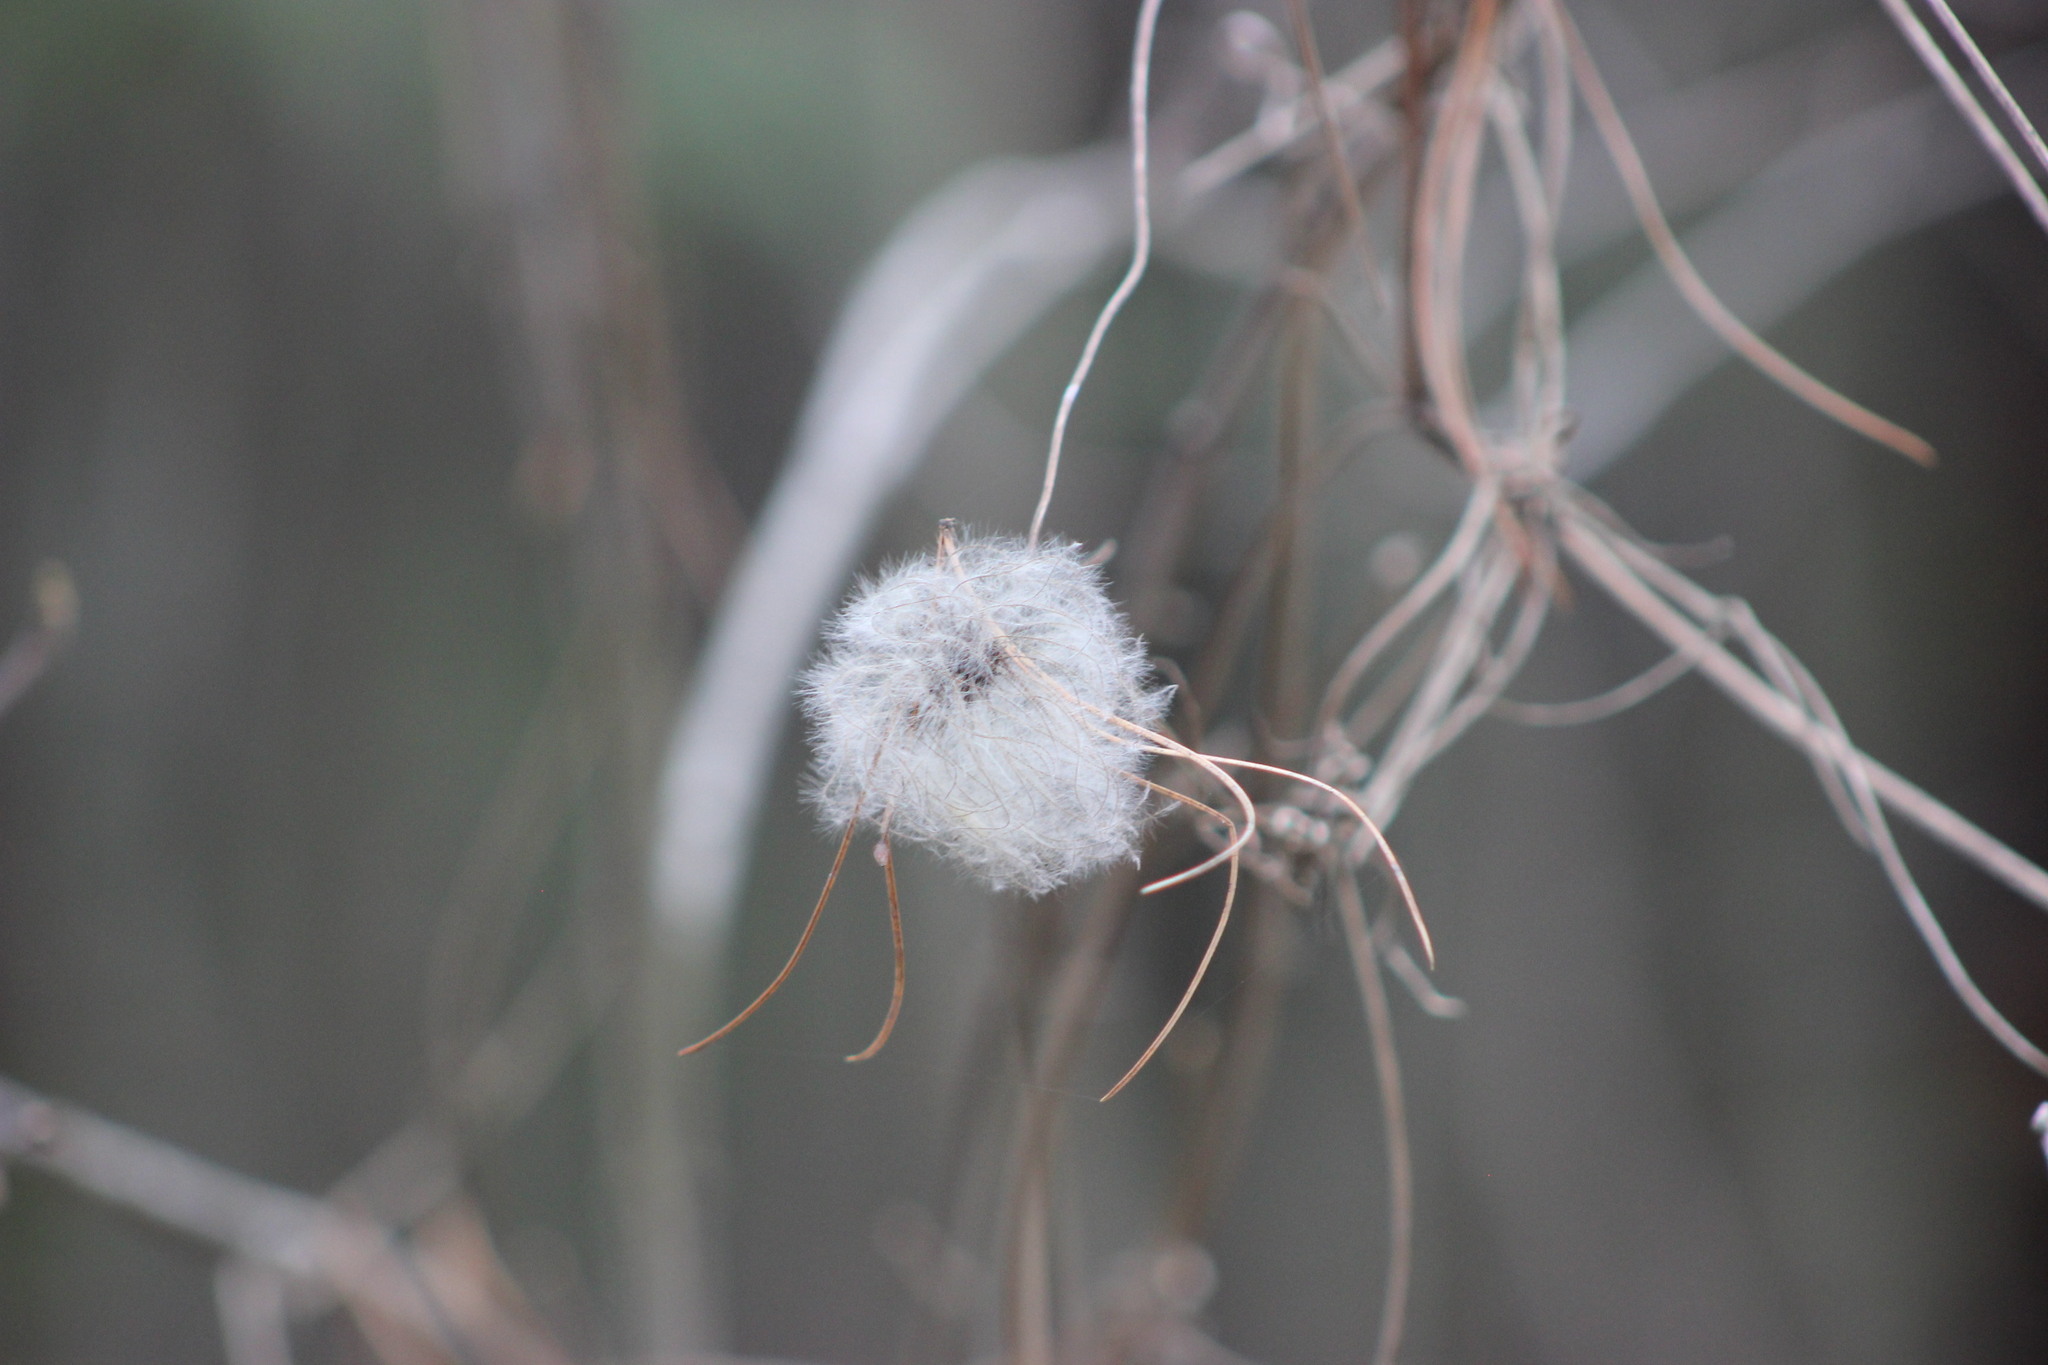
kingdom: Plantae
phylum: Tracheophyta
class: Magnoliopsida
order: Ranunculales
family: Ranunculaceae
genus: Clematis
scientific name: Clematis sibirica
